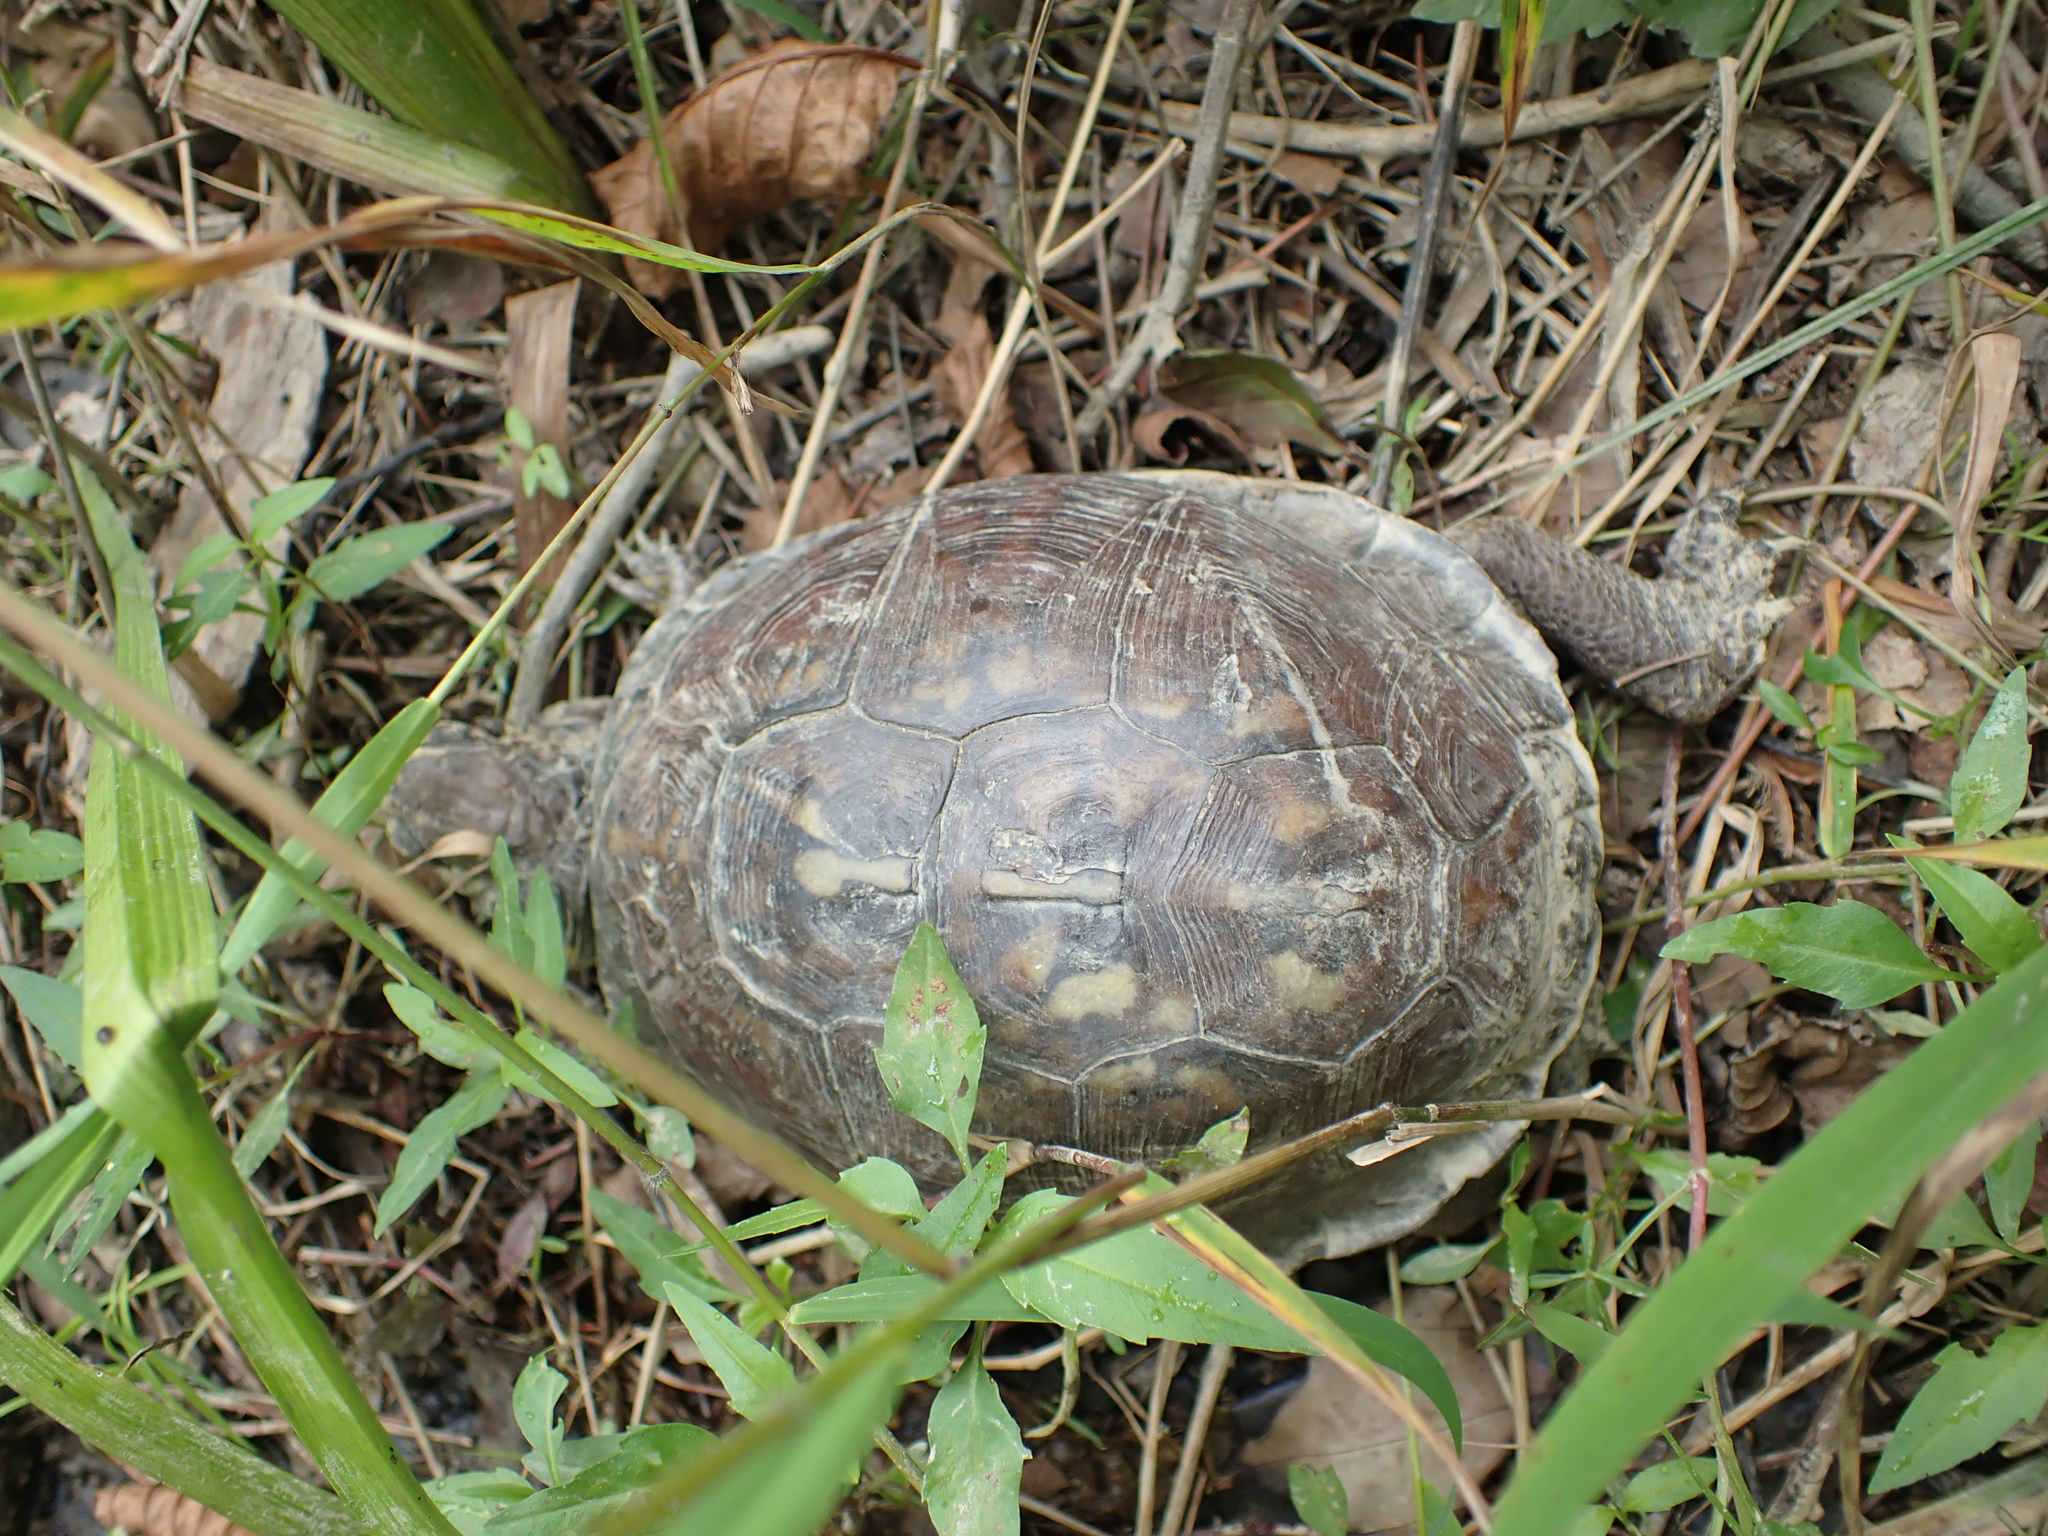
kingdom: Animalia
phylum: Chordata
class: Testudines
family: Emydidae
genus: Terrapene
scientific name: Terrapene carolina
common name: Common box turtle
